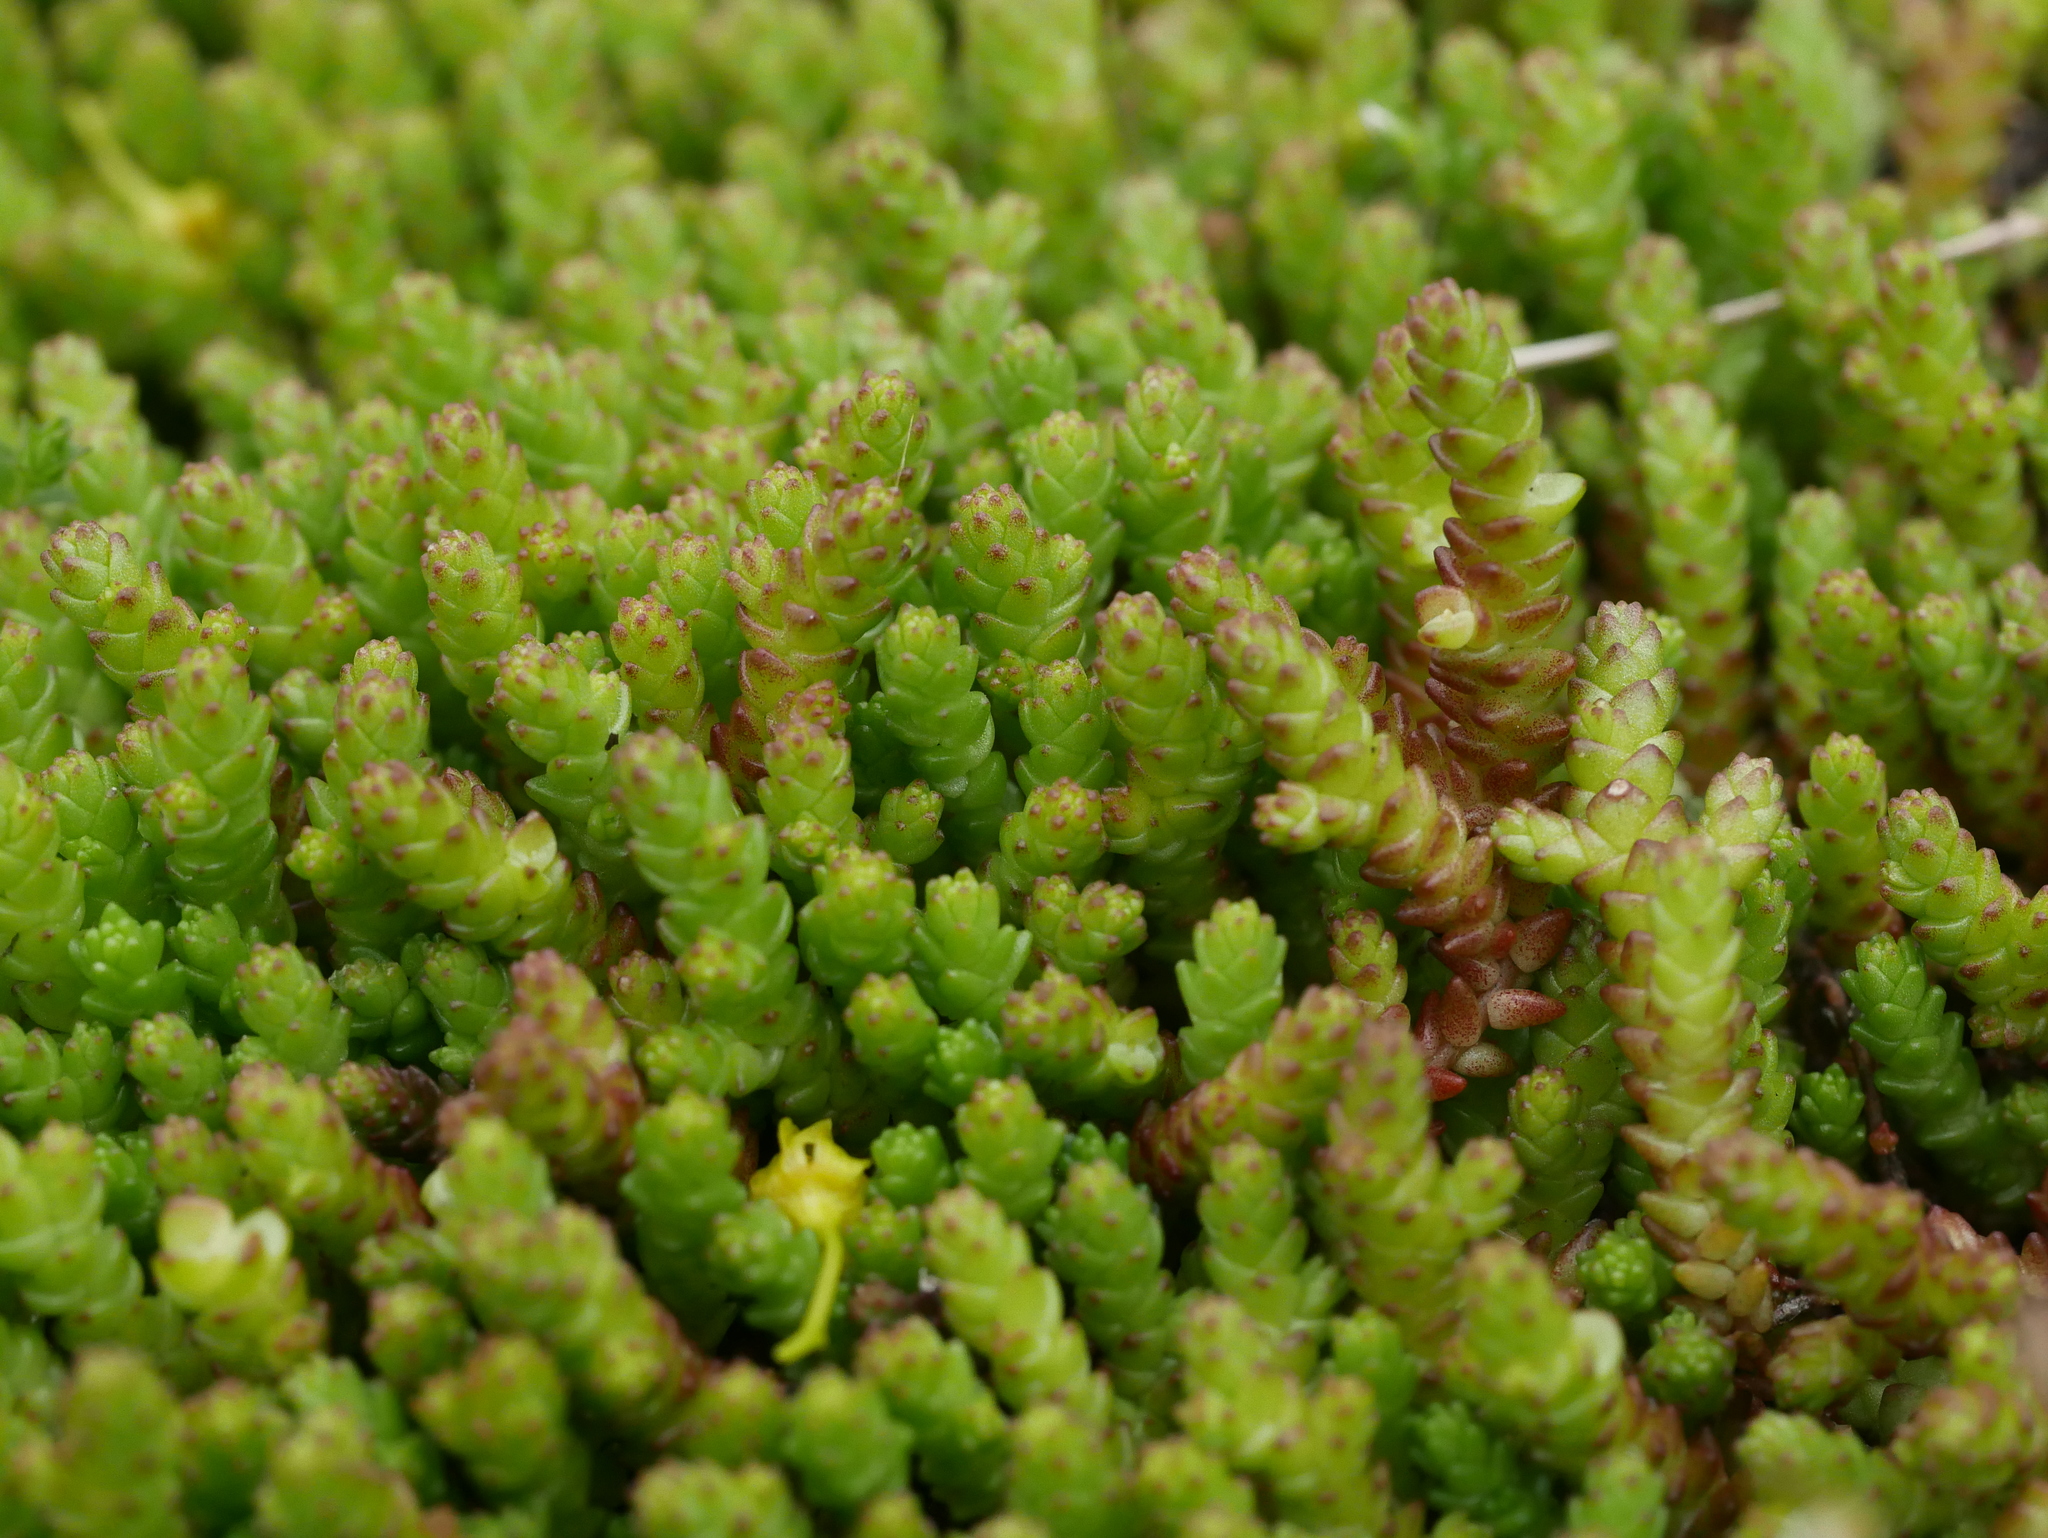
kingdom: Plantae
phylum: Tracheophyta
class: Magnoliopsida
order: Saxifragales
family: Crassulaceae
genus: Sedum
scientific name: Sedum acre
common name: Biting stonecrop
